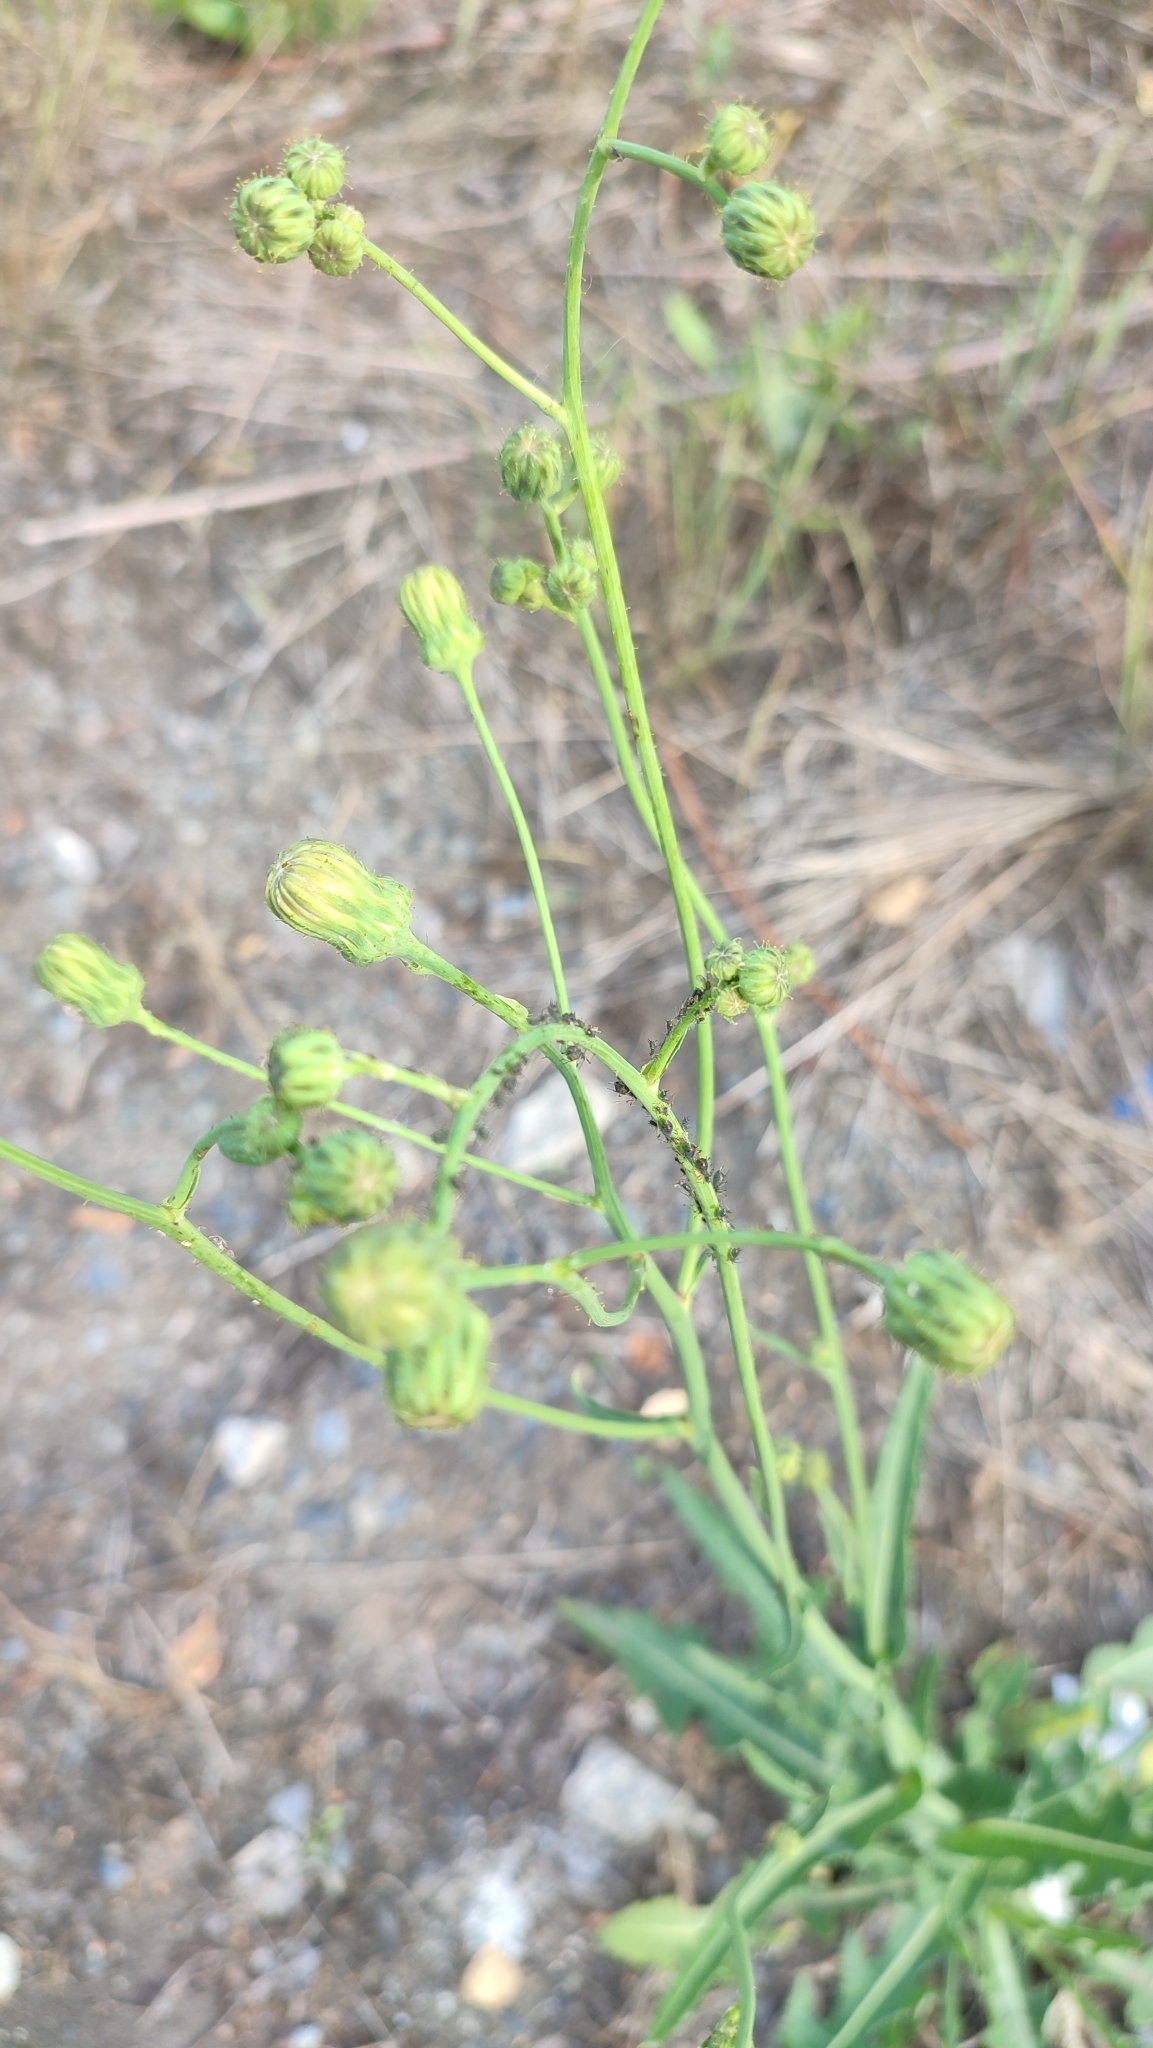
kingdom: Plantae
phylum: Tracheophyta
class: Magnoliopsida
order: Asterales
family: Asteraceae
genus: Sonchus
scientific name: Sonchus arvensis
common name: Perennial sow-thistle
